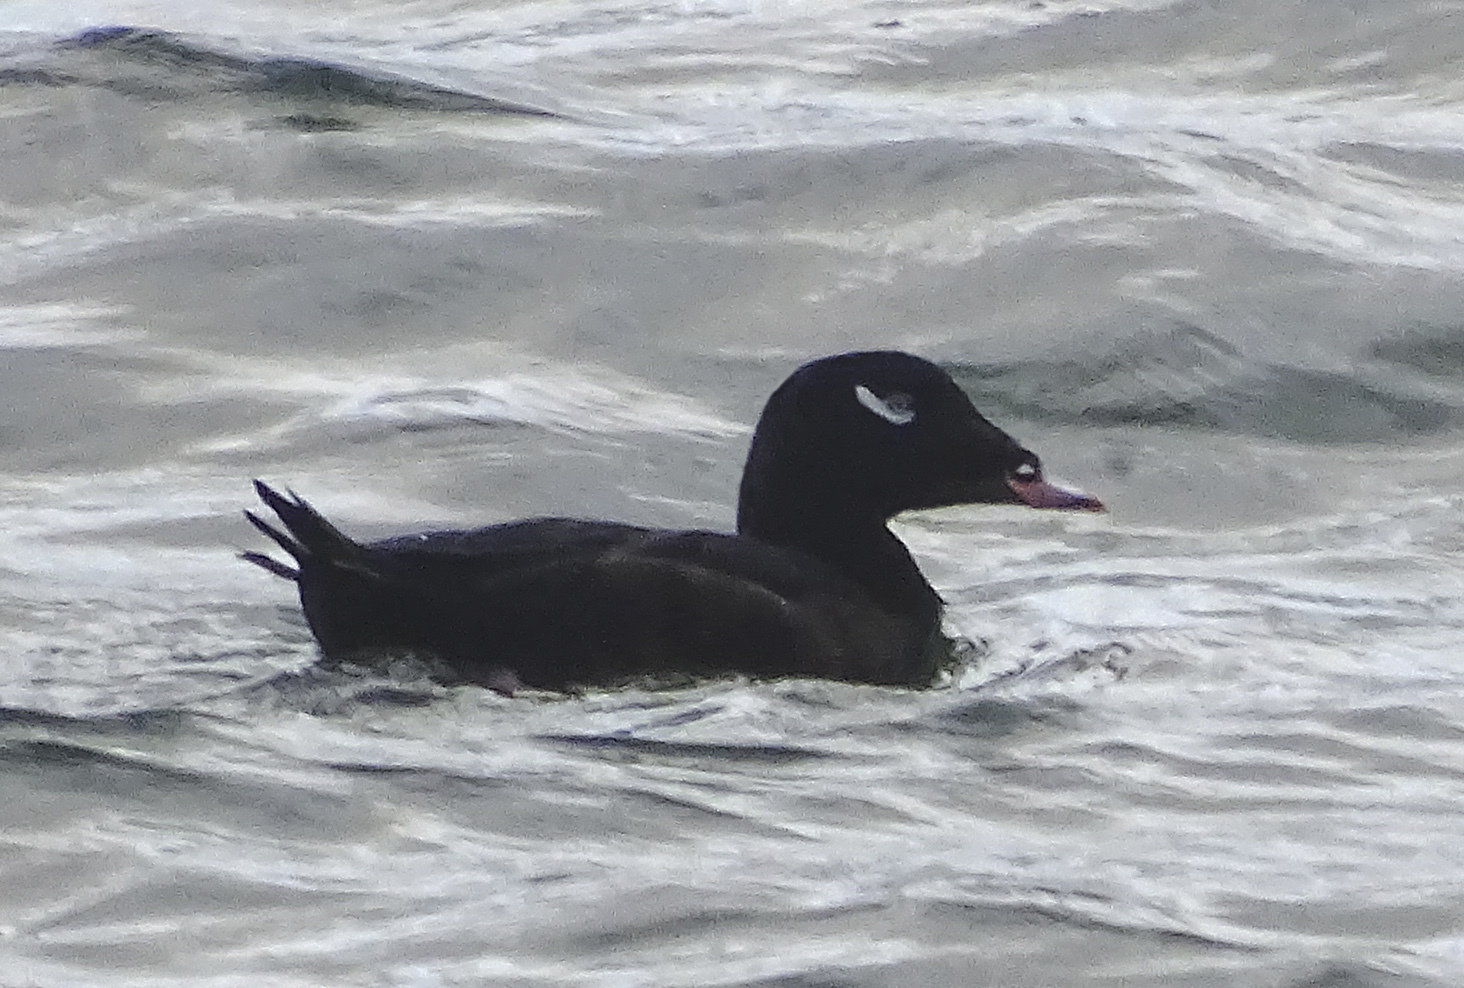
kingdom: Animalia
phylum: Chordata
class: Aves
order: Anseriformes
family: Anatidae
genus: Melanitta
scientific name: Melanitta deglandi
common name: White-winged scoter
